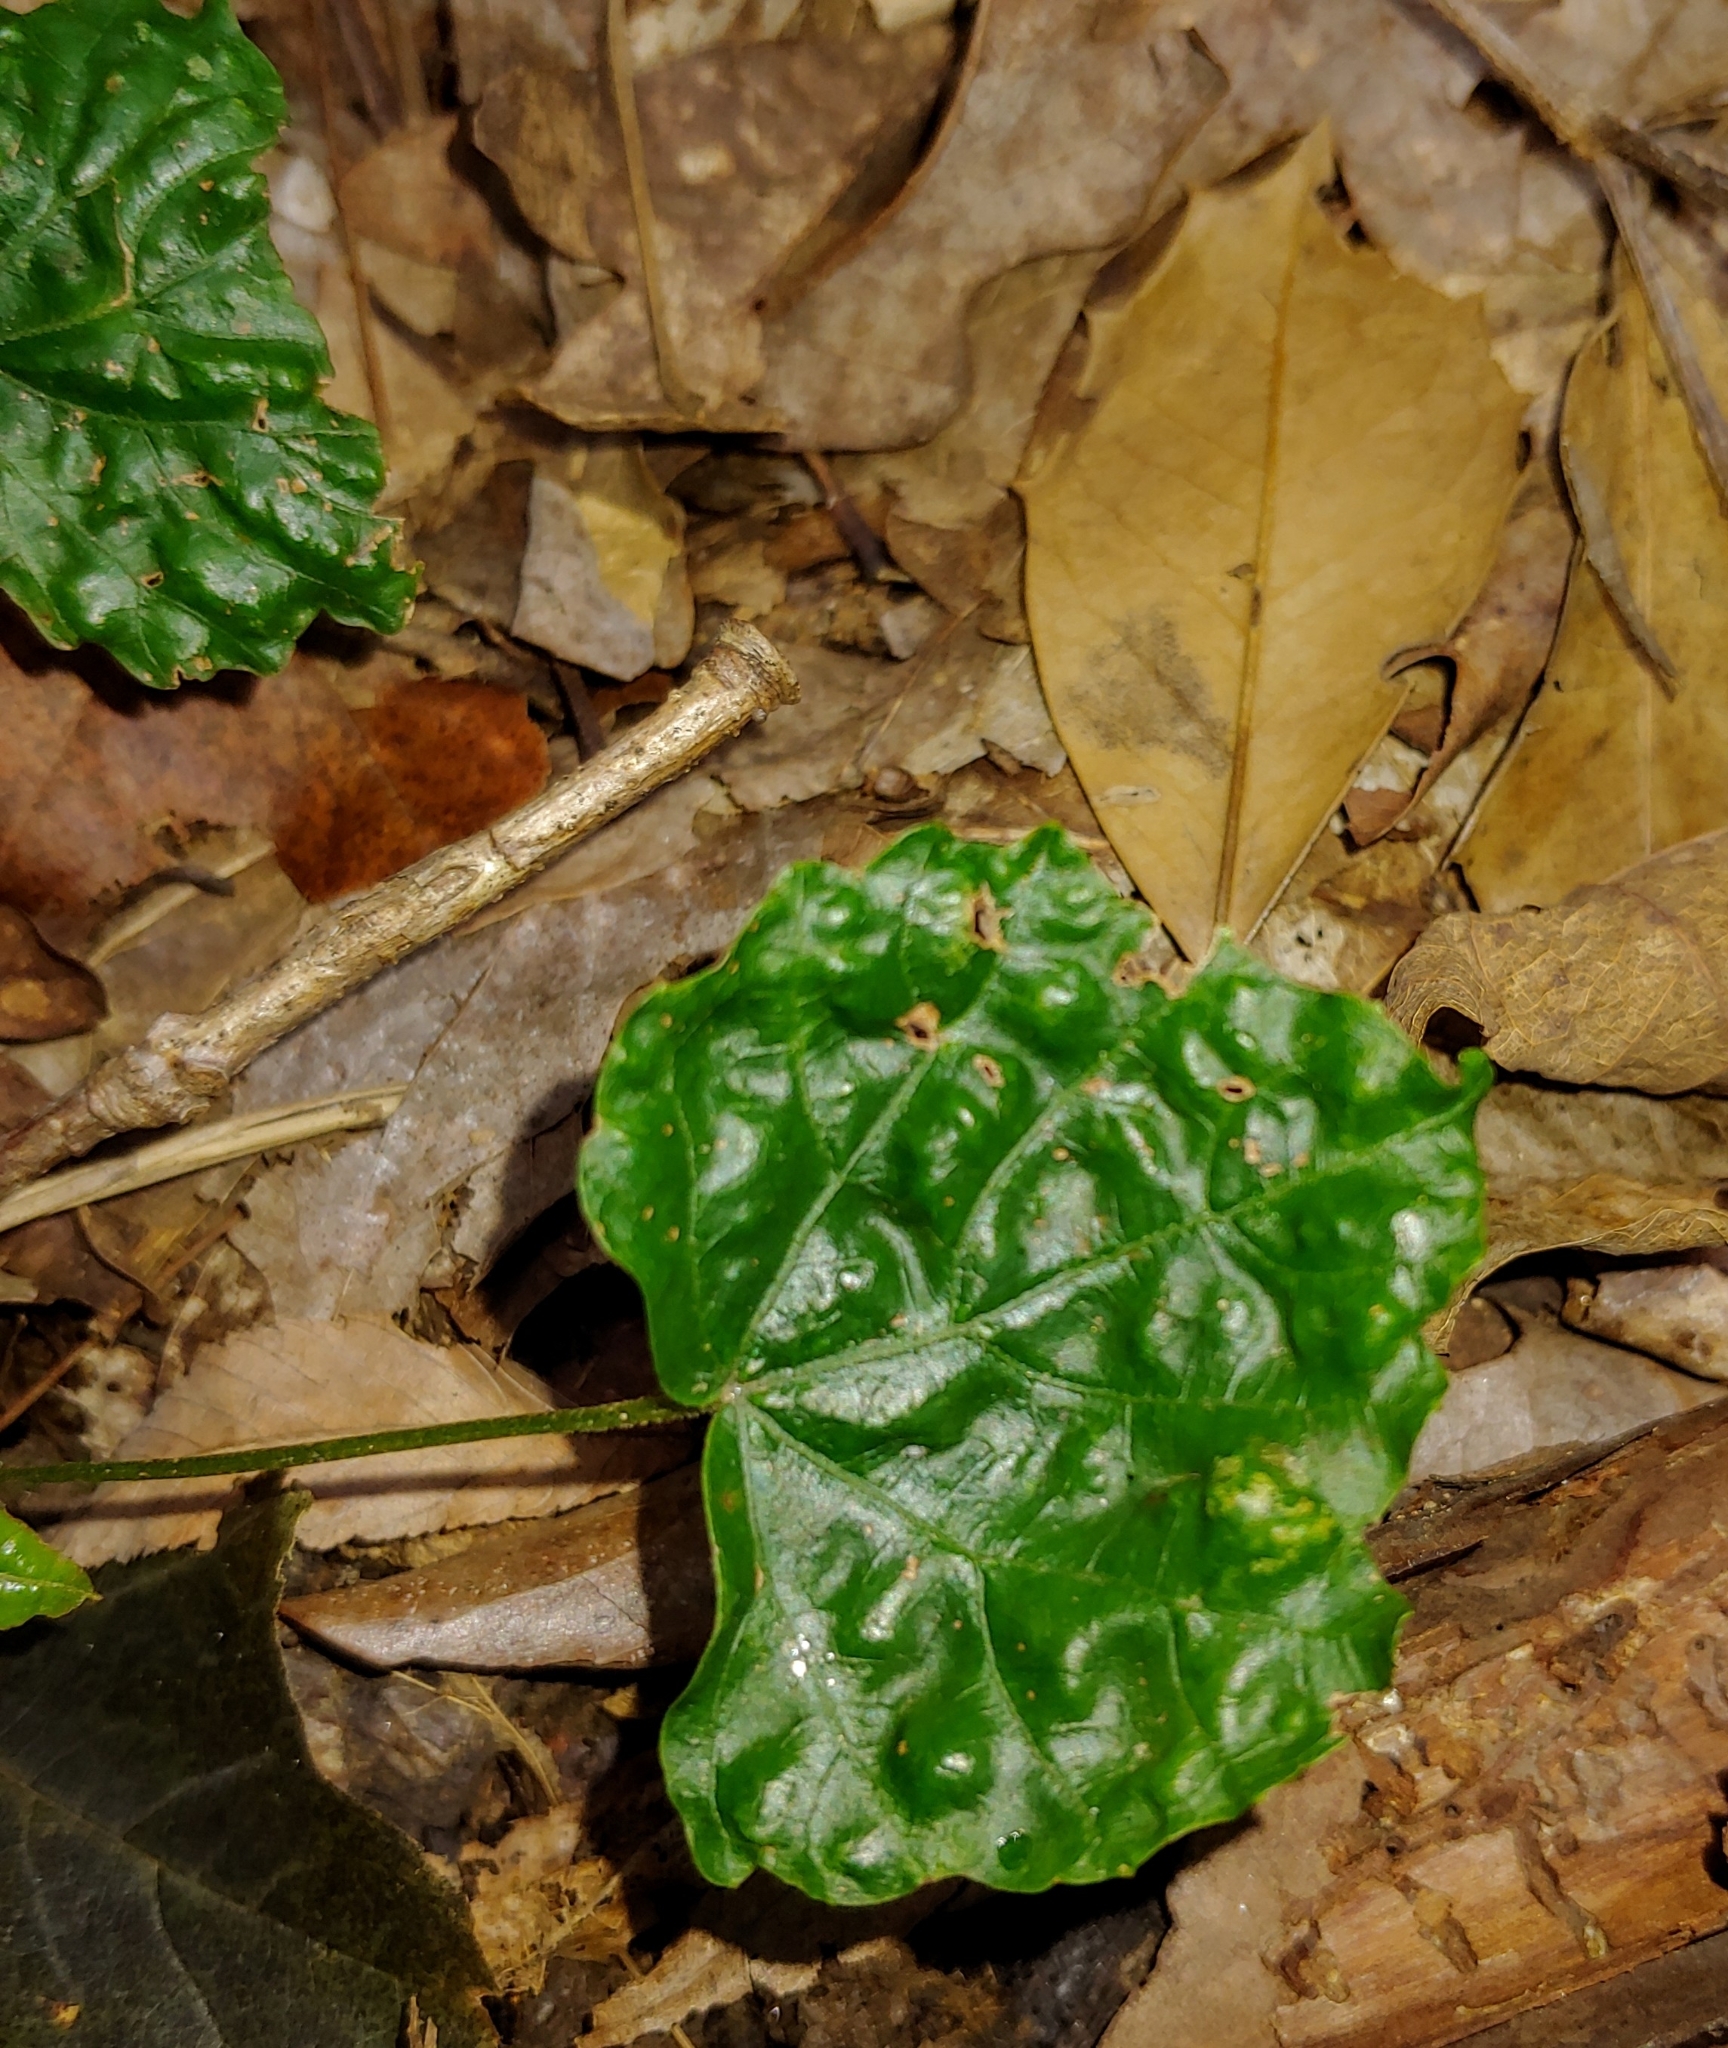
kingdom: Plantae
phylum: Tracheophyta
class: Magnoliopsida
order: Vitales
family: Vitaceae
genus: Vitis
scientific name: Vitis rotundifolia
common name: Muscadine grape
